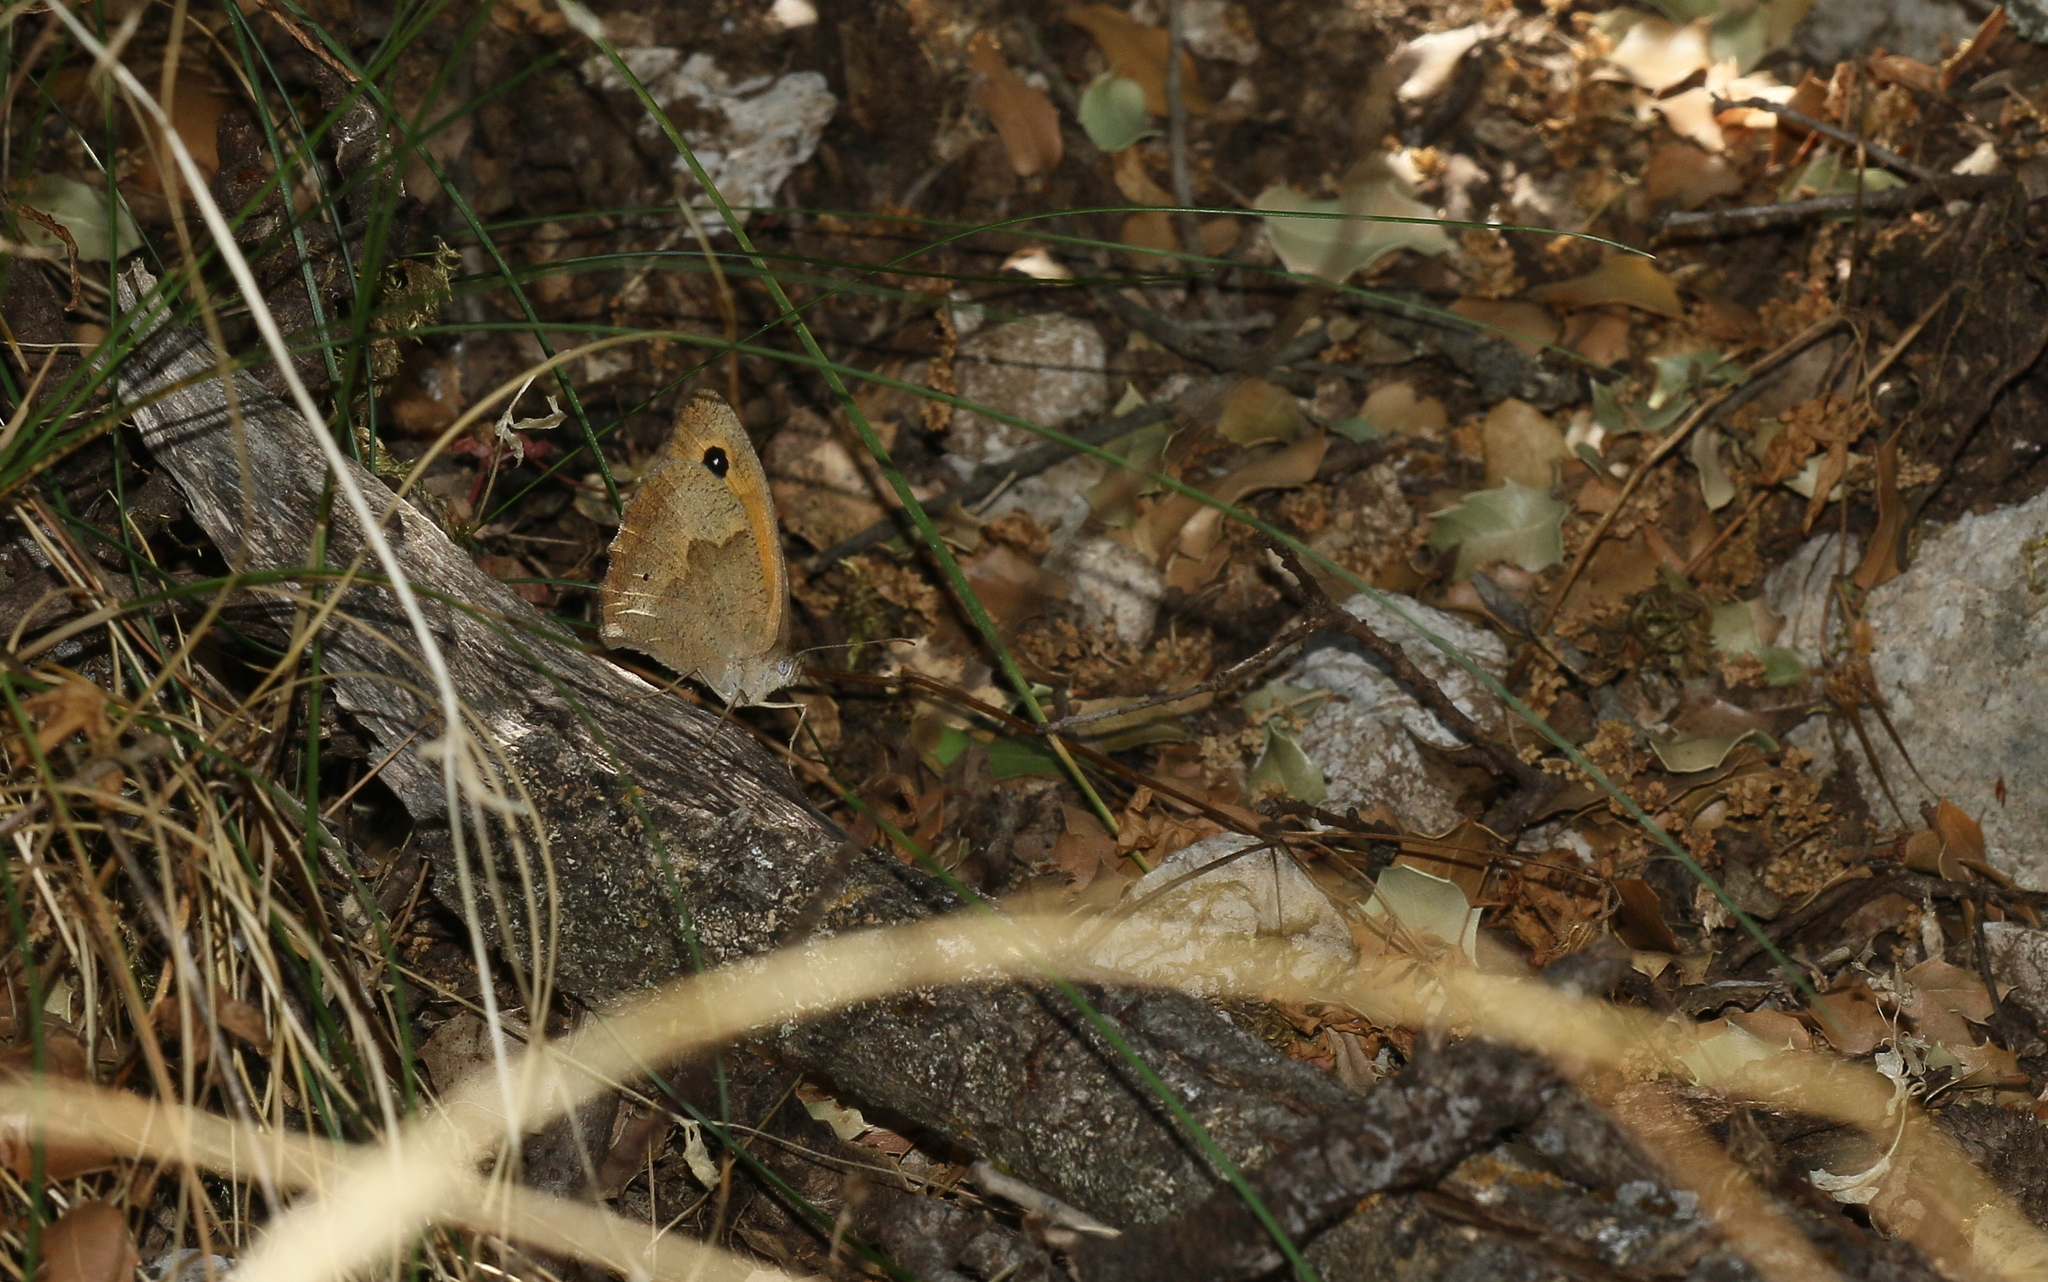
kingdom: Animalia
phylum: Arthropoda
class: Insecta
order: Lepidoptera
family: Nymphalidae
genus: Maniola
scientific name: Maniola jurtina
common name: Meadow brown
